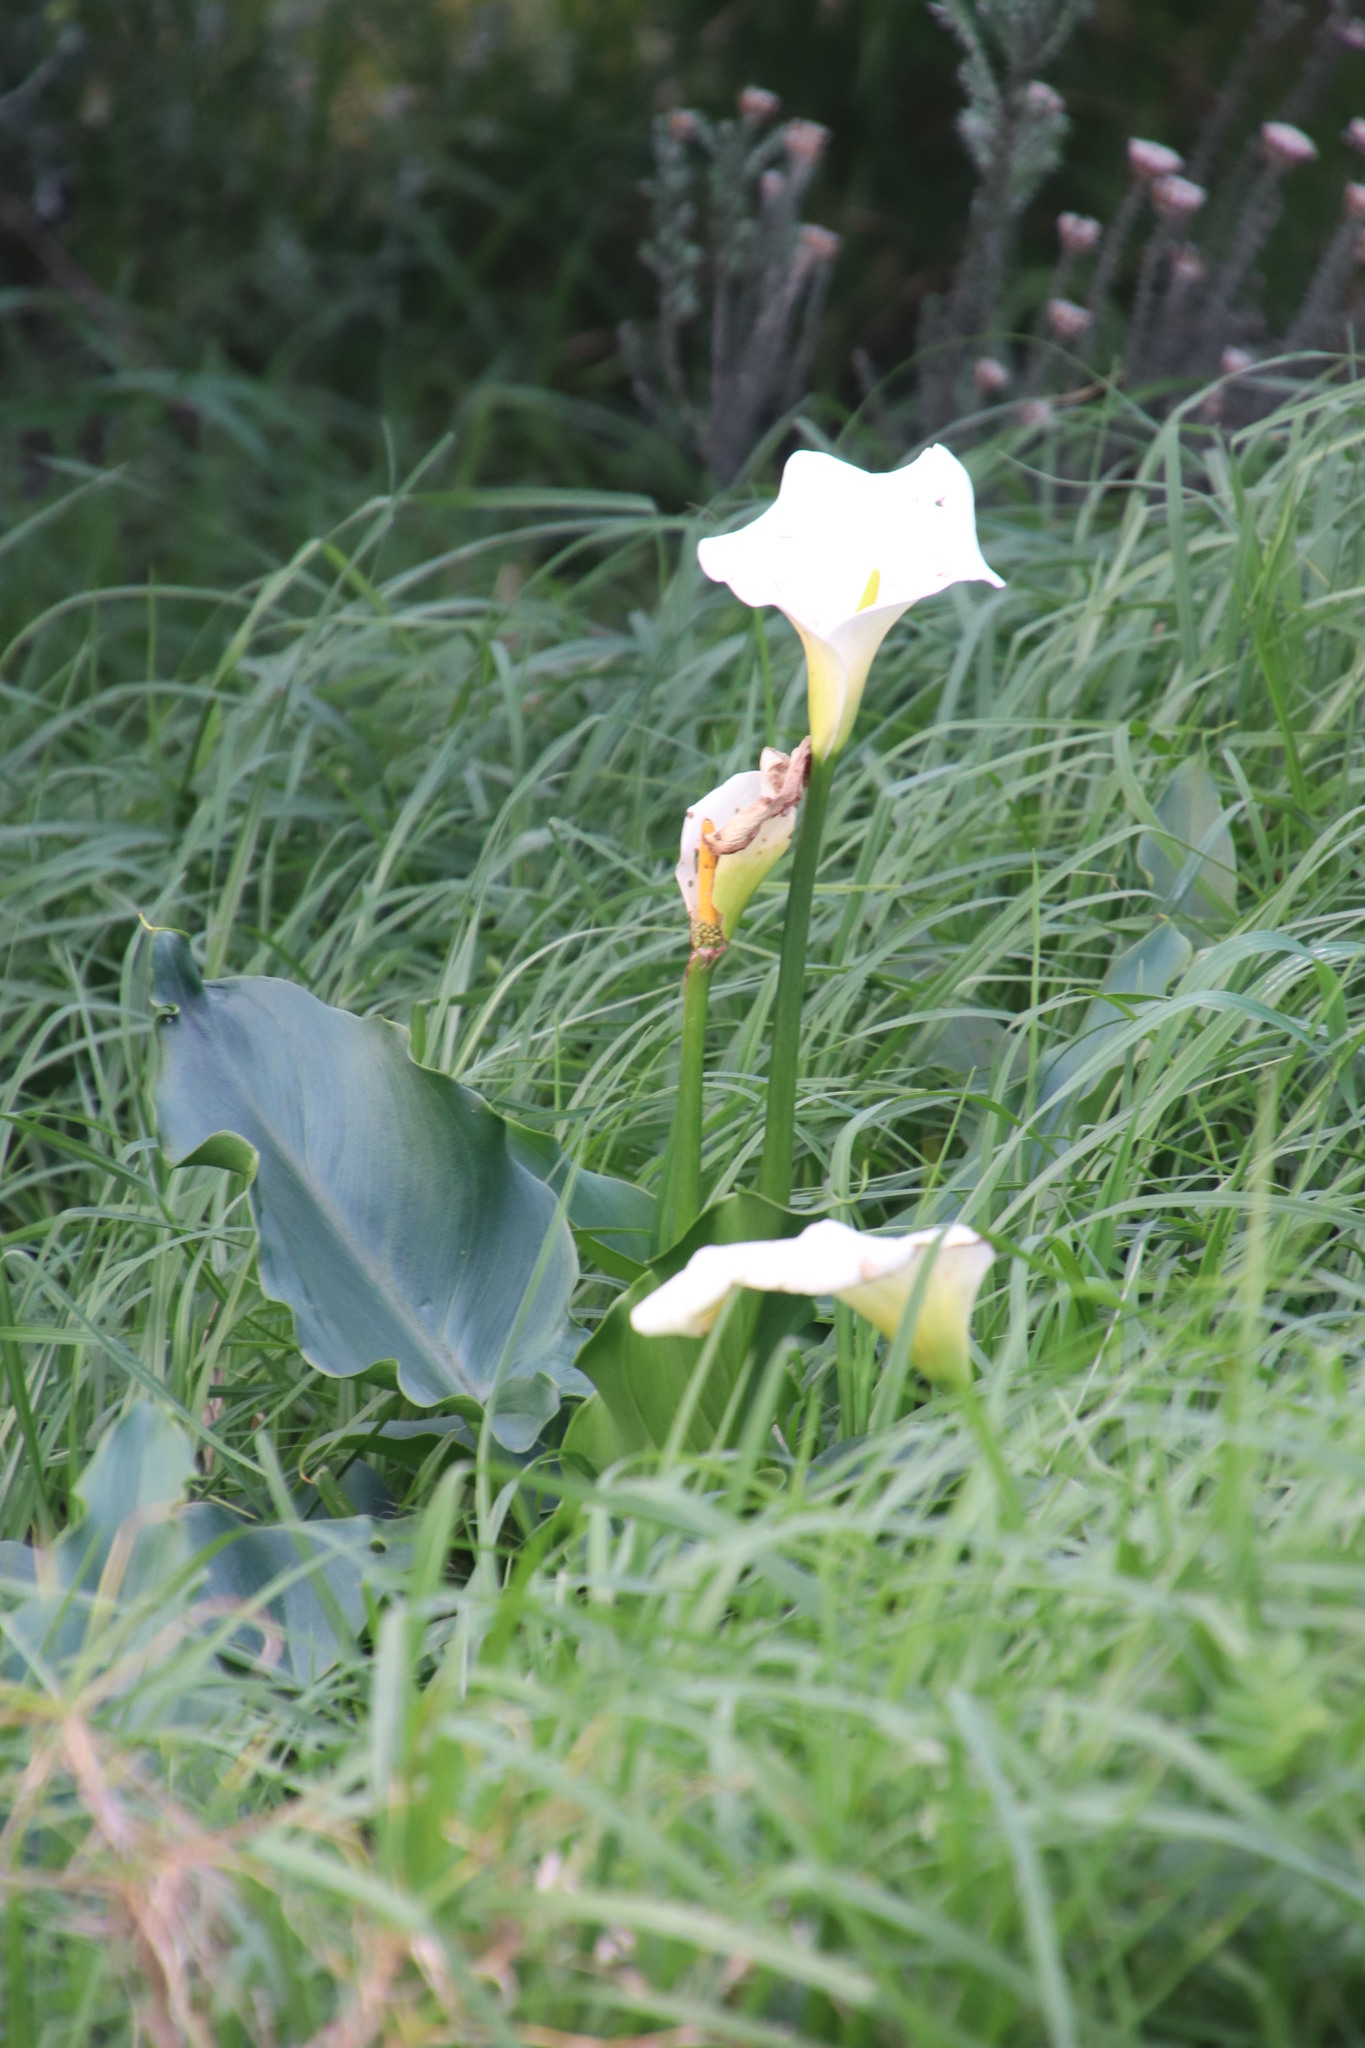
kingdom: Plantae
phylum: Tracheophyta
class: Liliopsida
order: Alismatales
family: Araceae
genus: Zantedeschia
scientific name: Zantedeschia aethiopica
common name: Altar-lily
